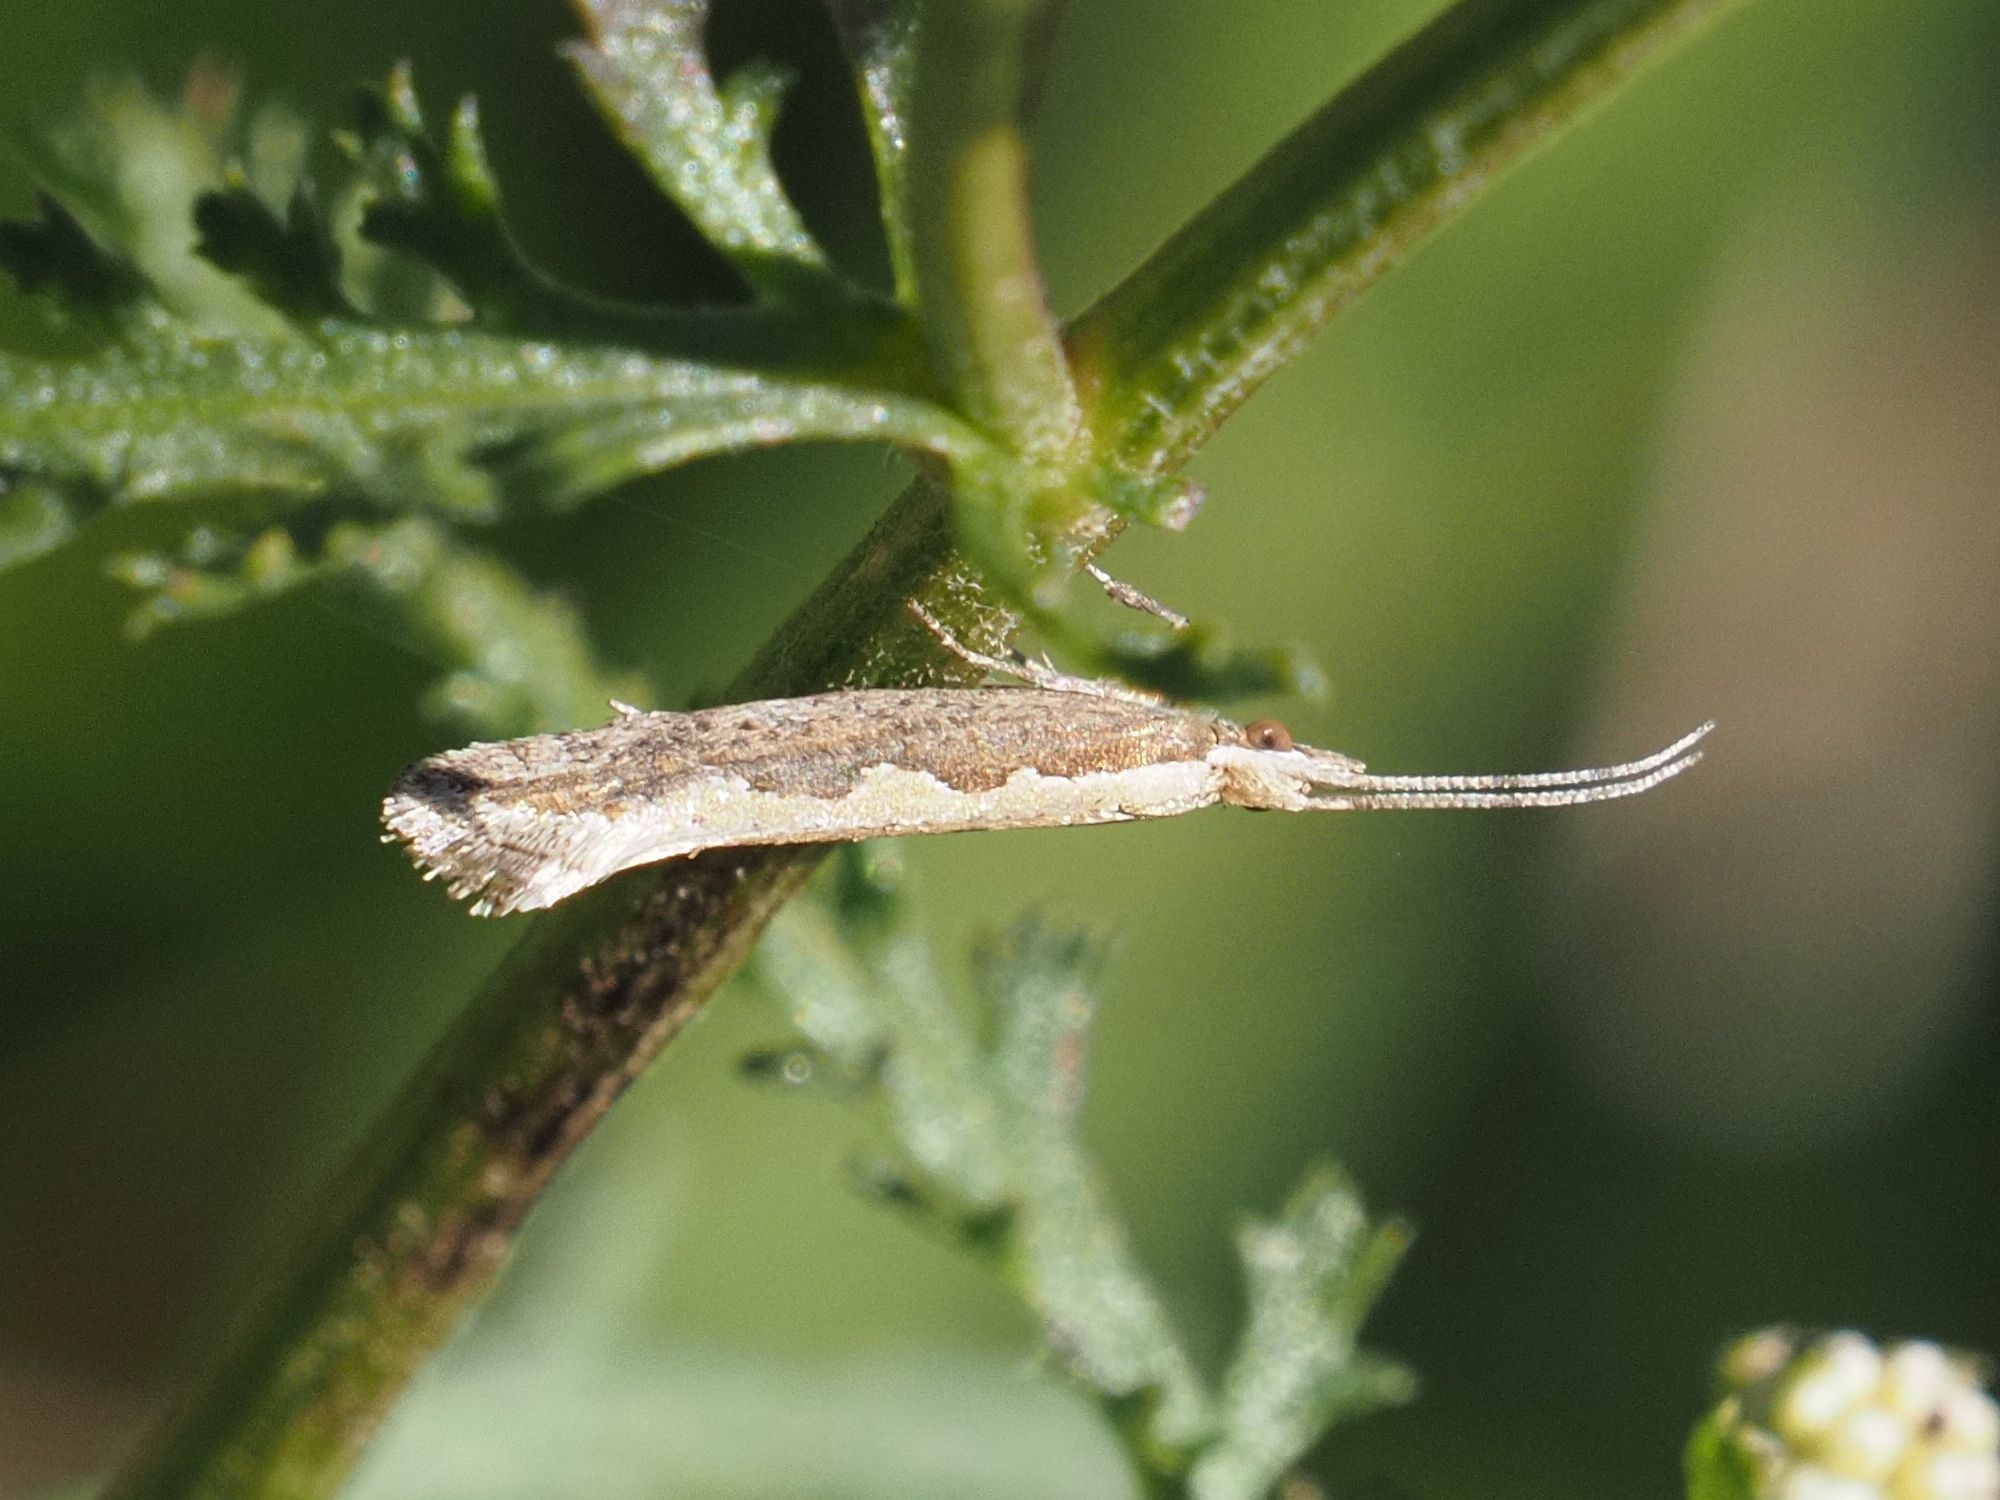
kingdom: Animalia
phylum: Arthropoda
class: Insecta
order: Lepidoptera
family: Plutellidae
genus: Plutella
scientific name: Plutella xylostella
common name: Diamond-back moth
